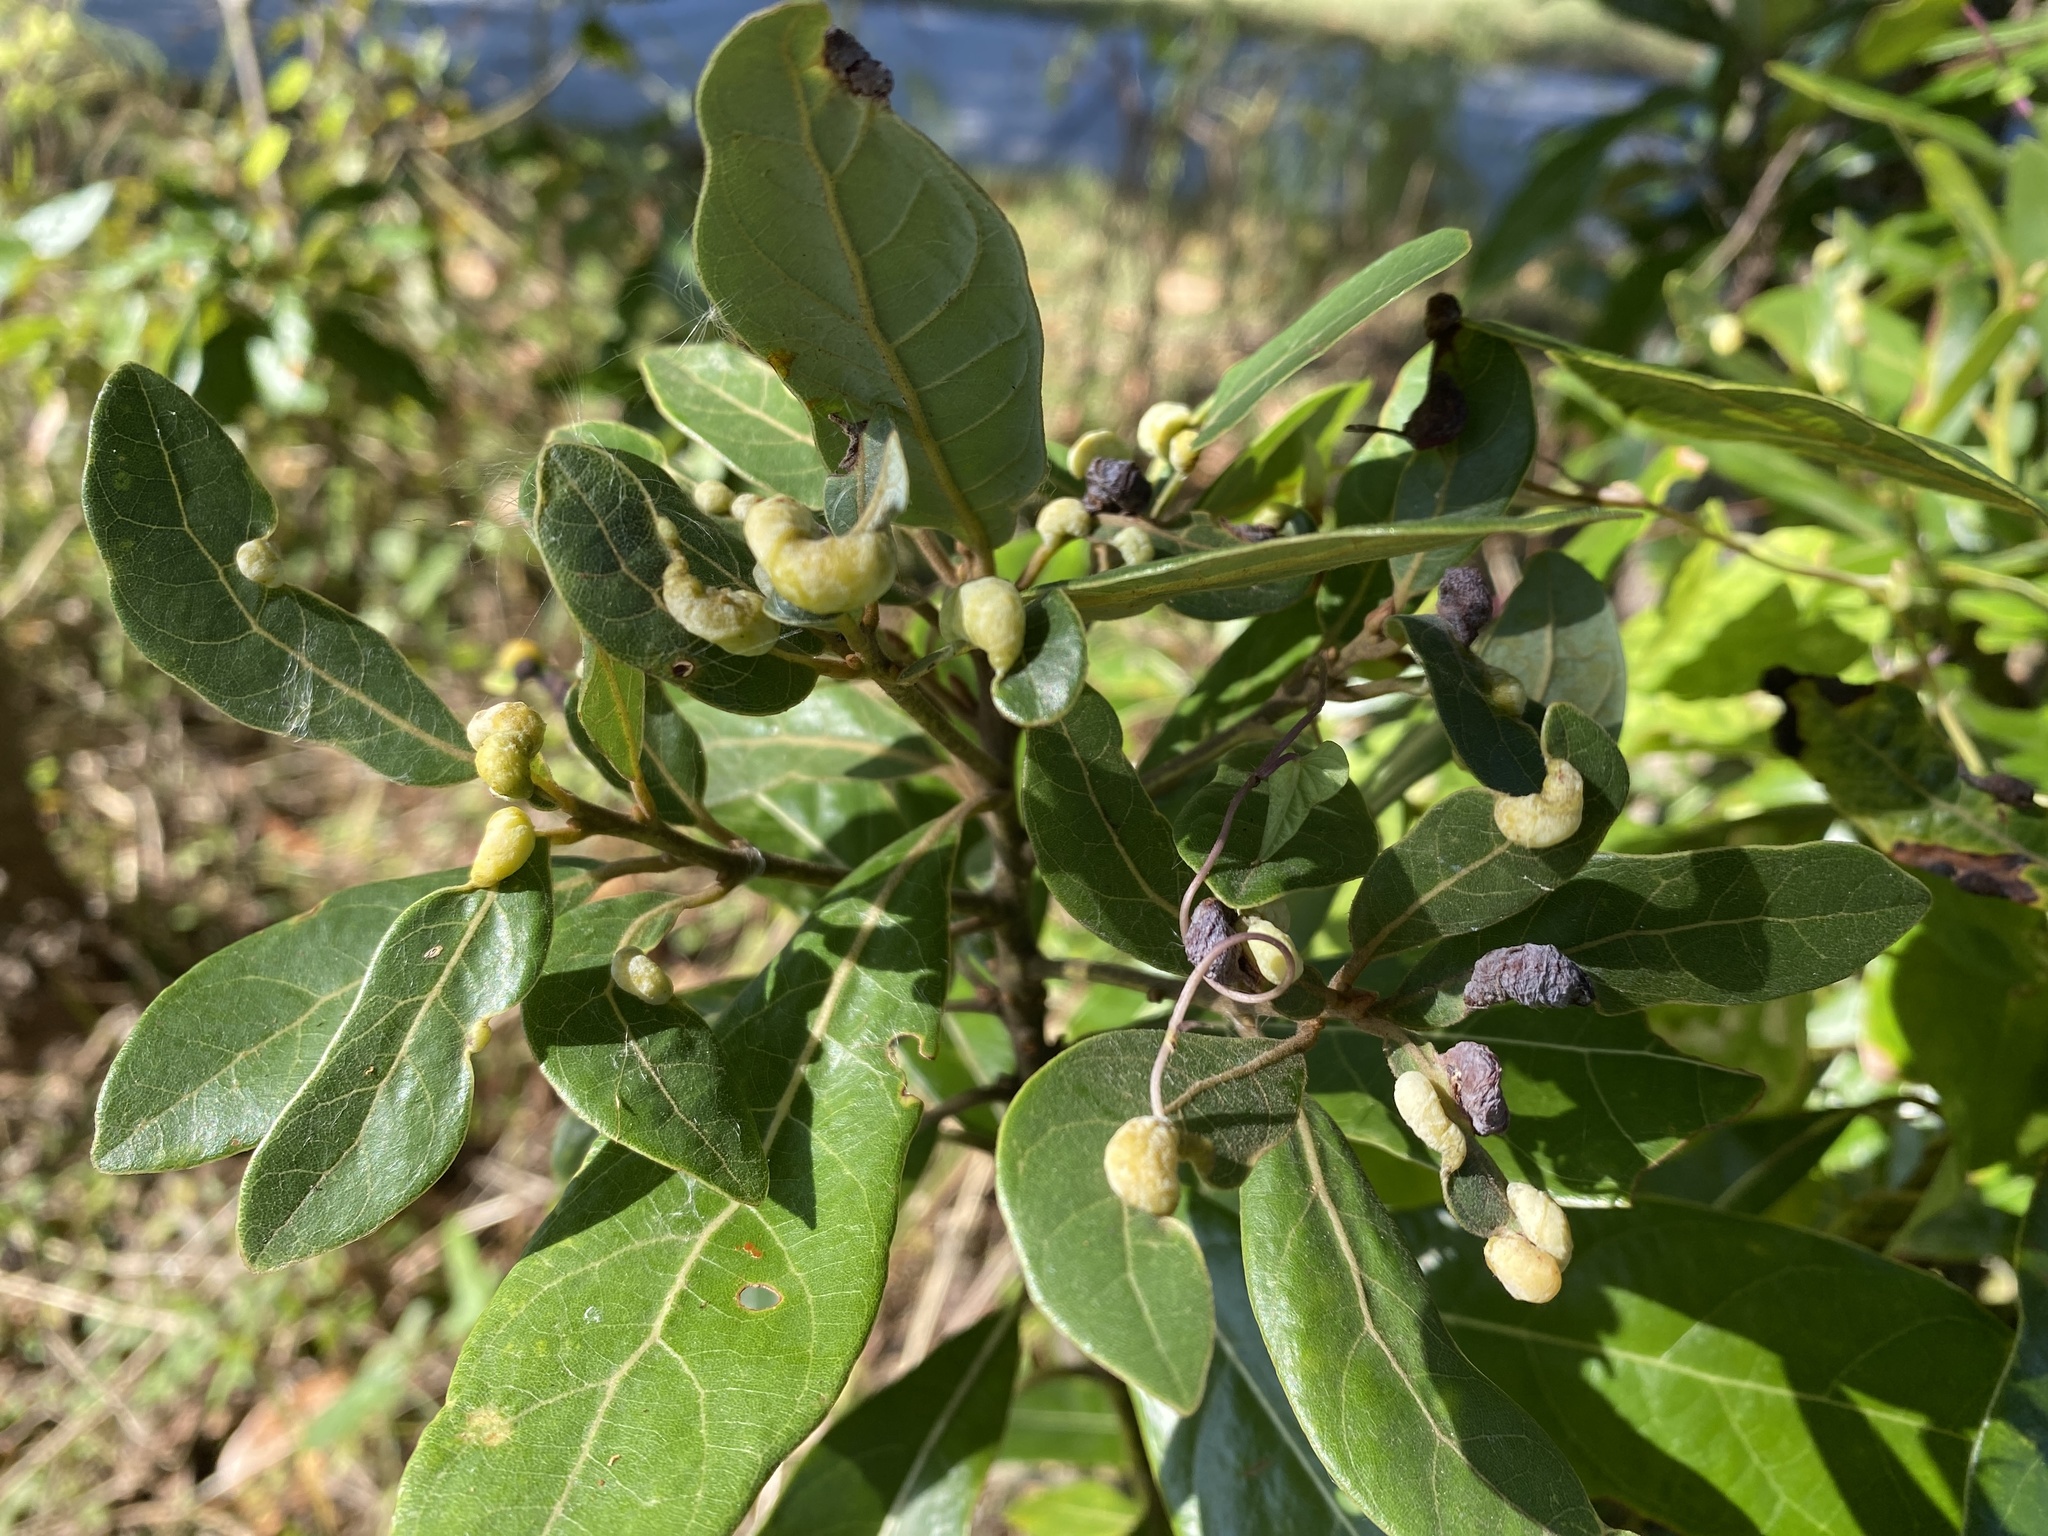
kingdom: Animalia
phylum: Arthropoda
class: Insecta
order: Hemiptera
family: Triozidae
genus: Trioza
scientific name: Trioza magnoliae
